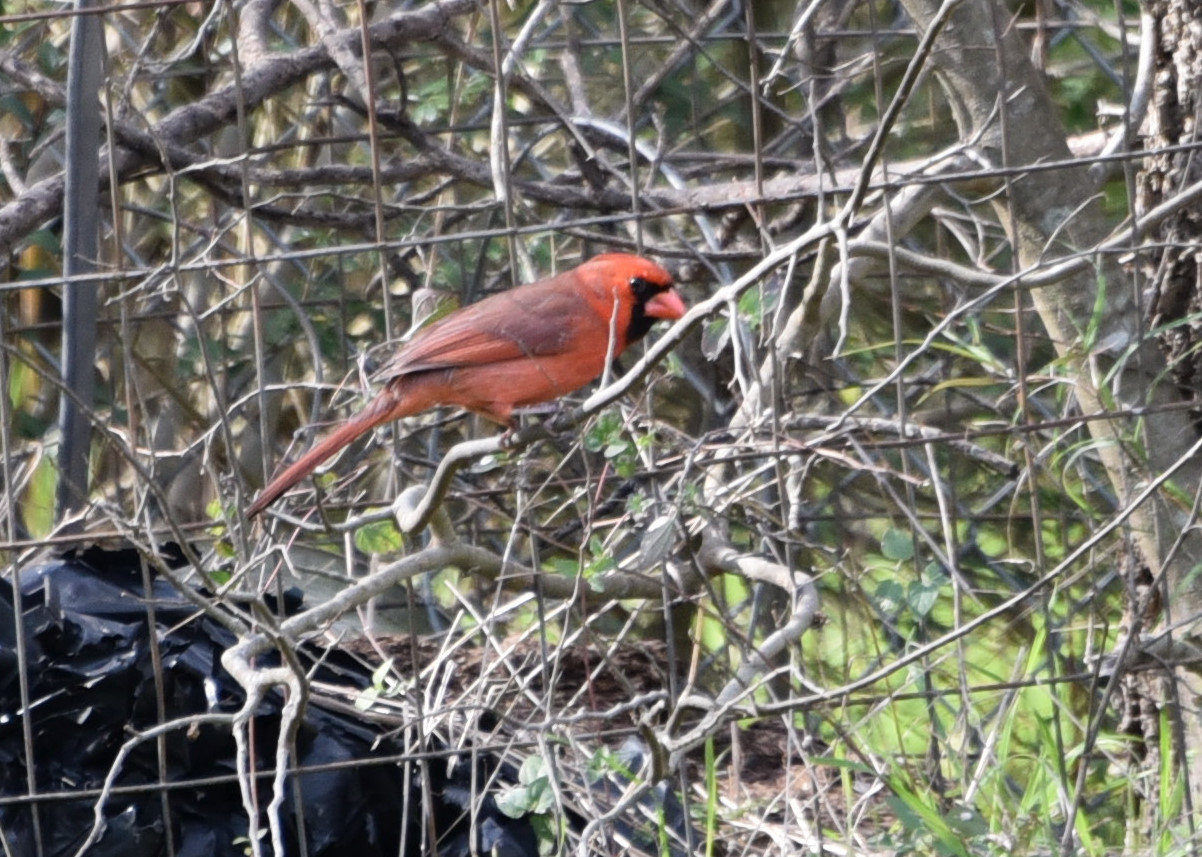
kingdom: Animalia
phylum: Chordata
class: Aves
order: Passeriformes
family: Cardinalidae
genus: Cardinalis
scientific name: Cardinalis cardinalis
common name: Northern cardinal
